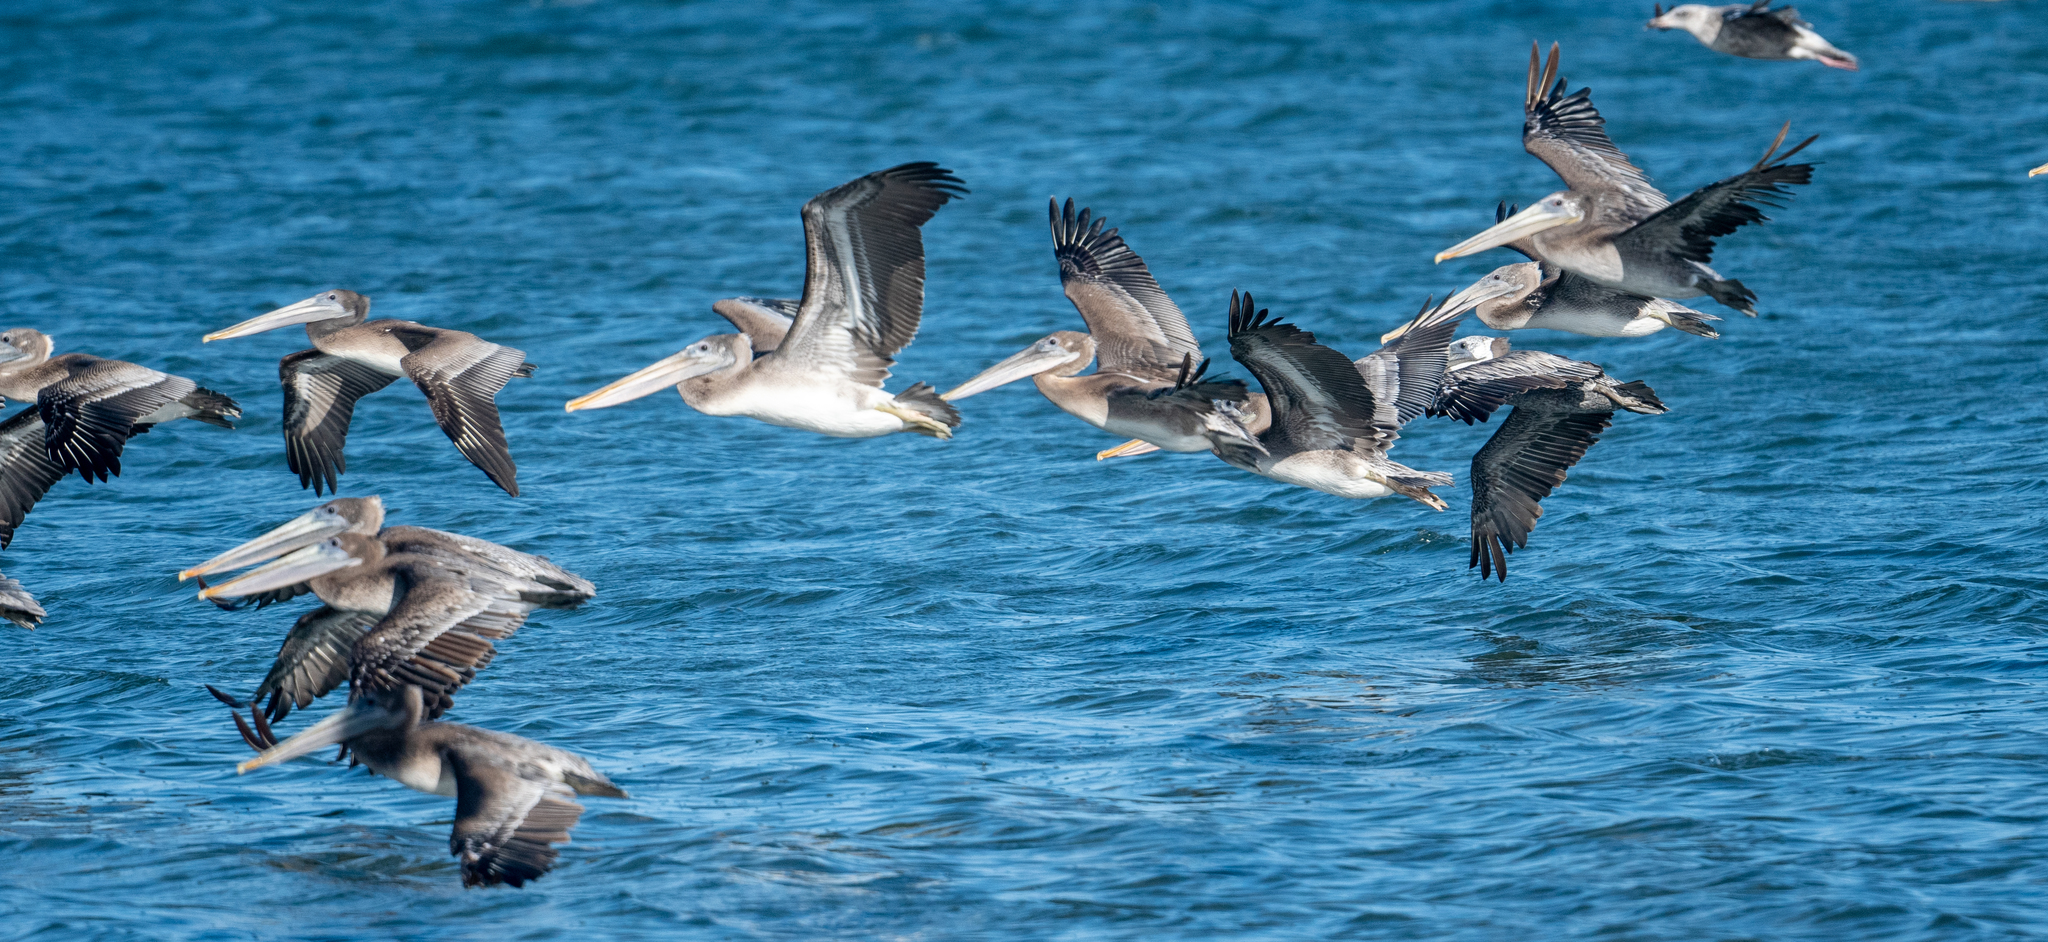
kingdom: Animalia
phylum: Chordata
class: Aves
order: Pelecaniformes
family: Pelecanidae
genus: Pelecanus
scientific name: Pelecanus occidentalis
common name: Brown pelican
